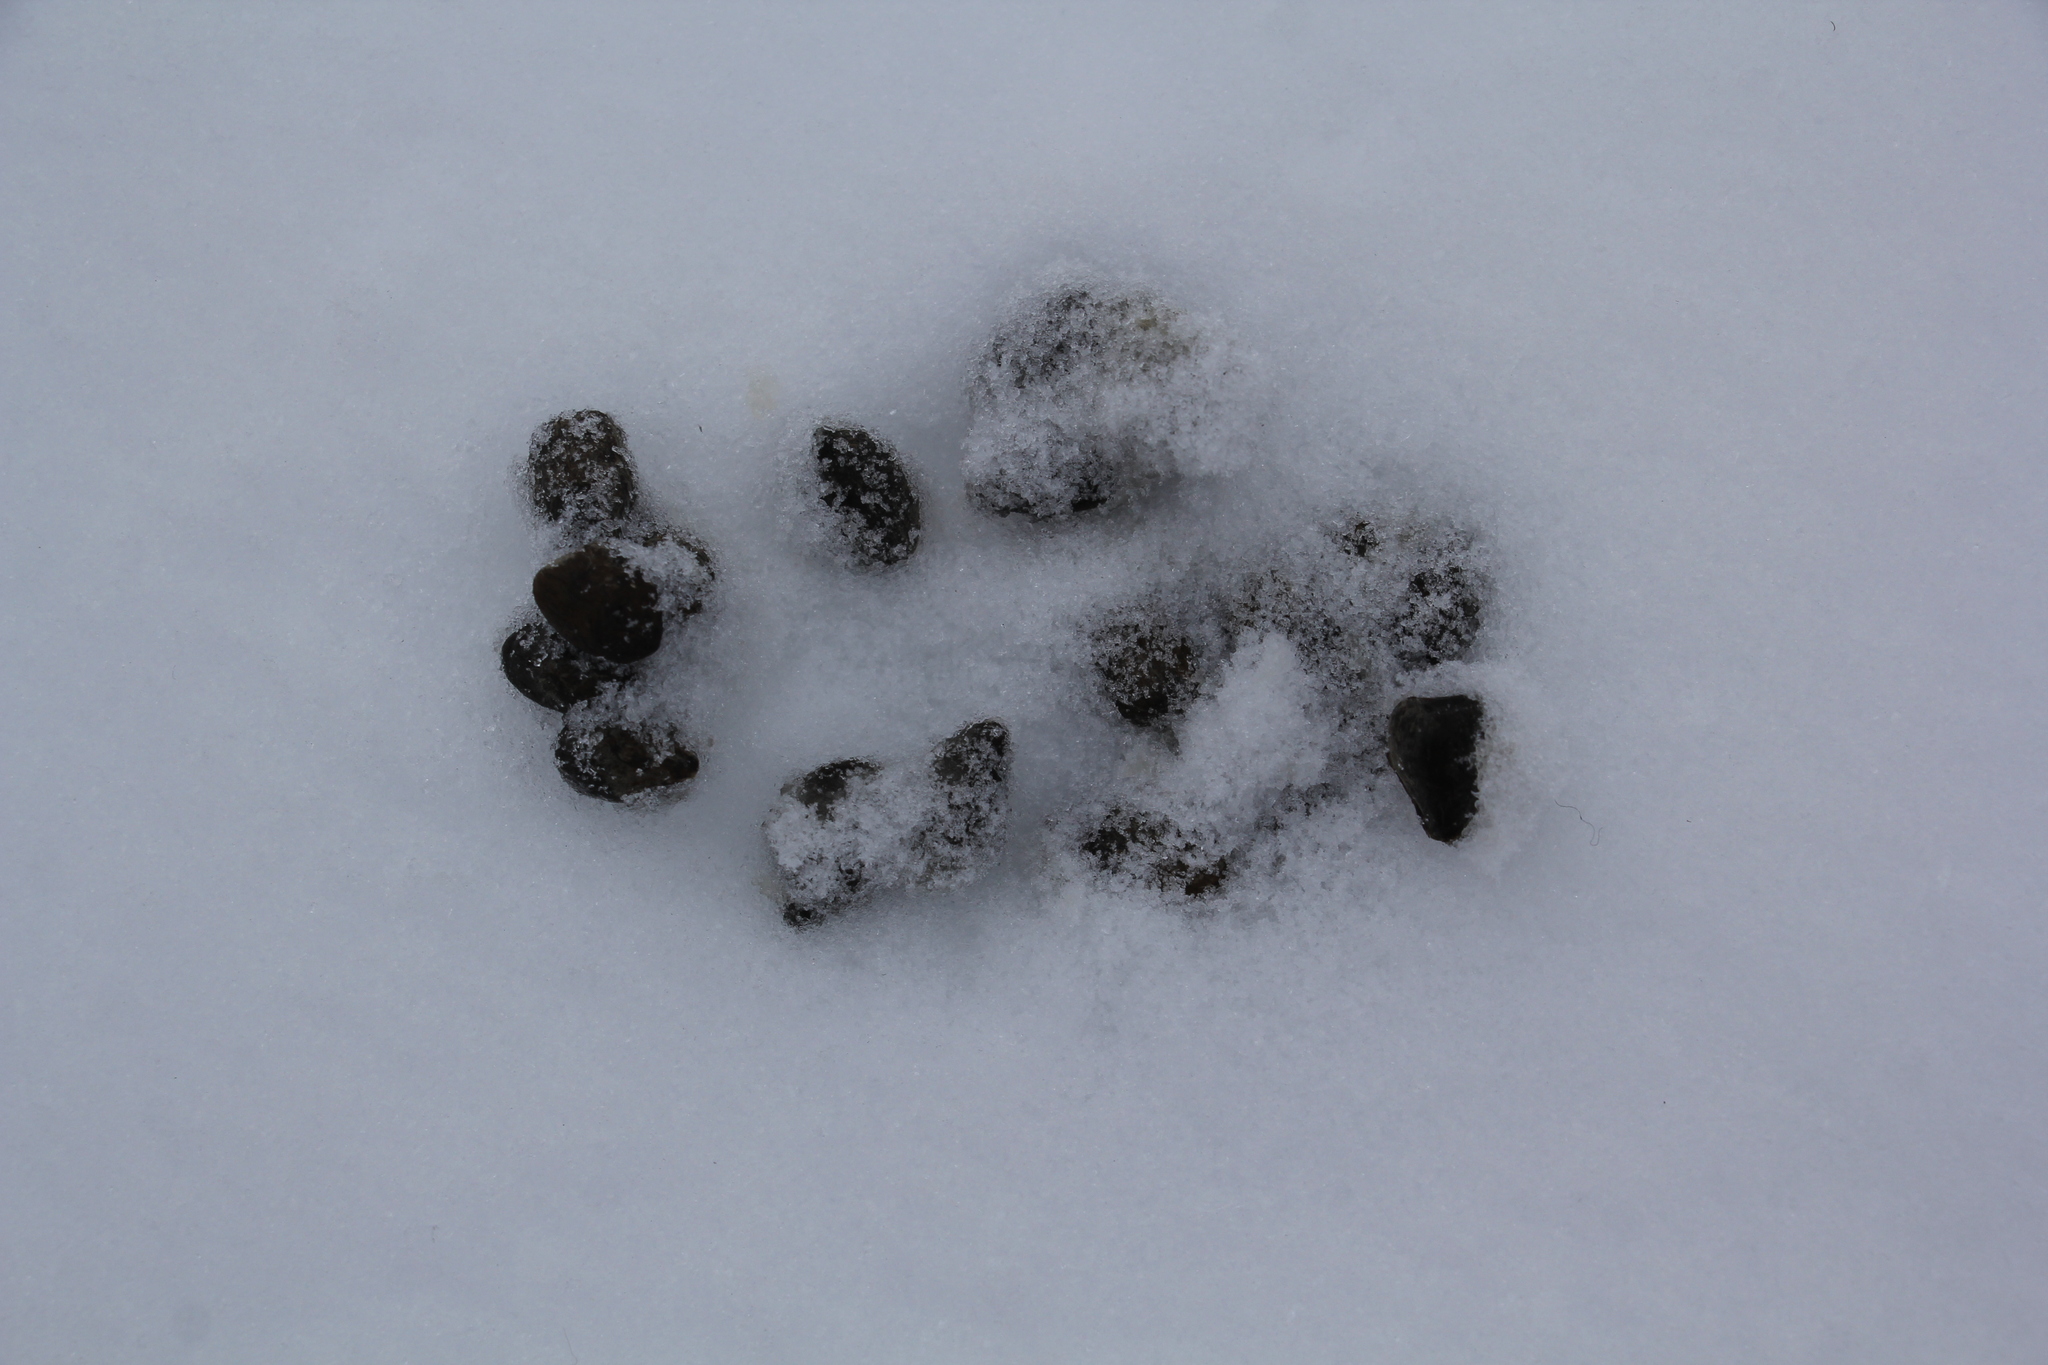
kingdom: Animalia
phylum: Chordata
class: Mammalia
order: Artiodactyla
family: Cervidae
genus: Capreolus
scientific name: Capreolus pygargus
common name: Siberian roe
